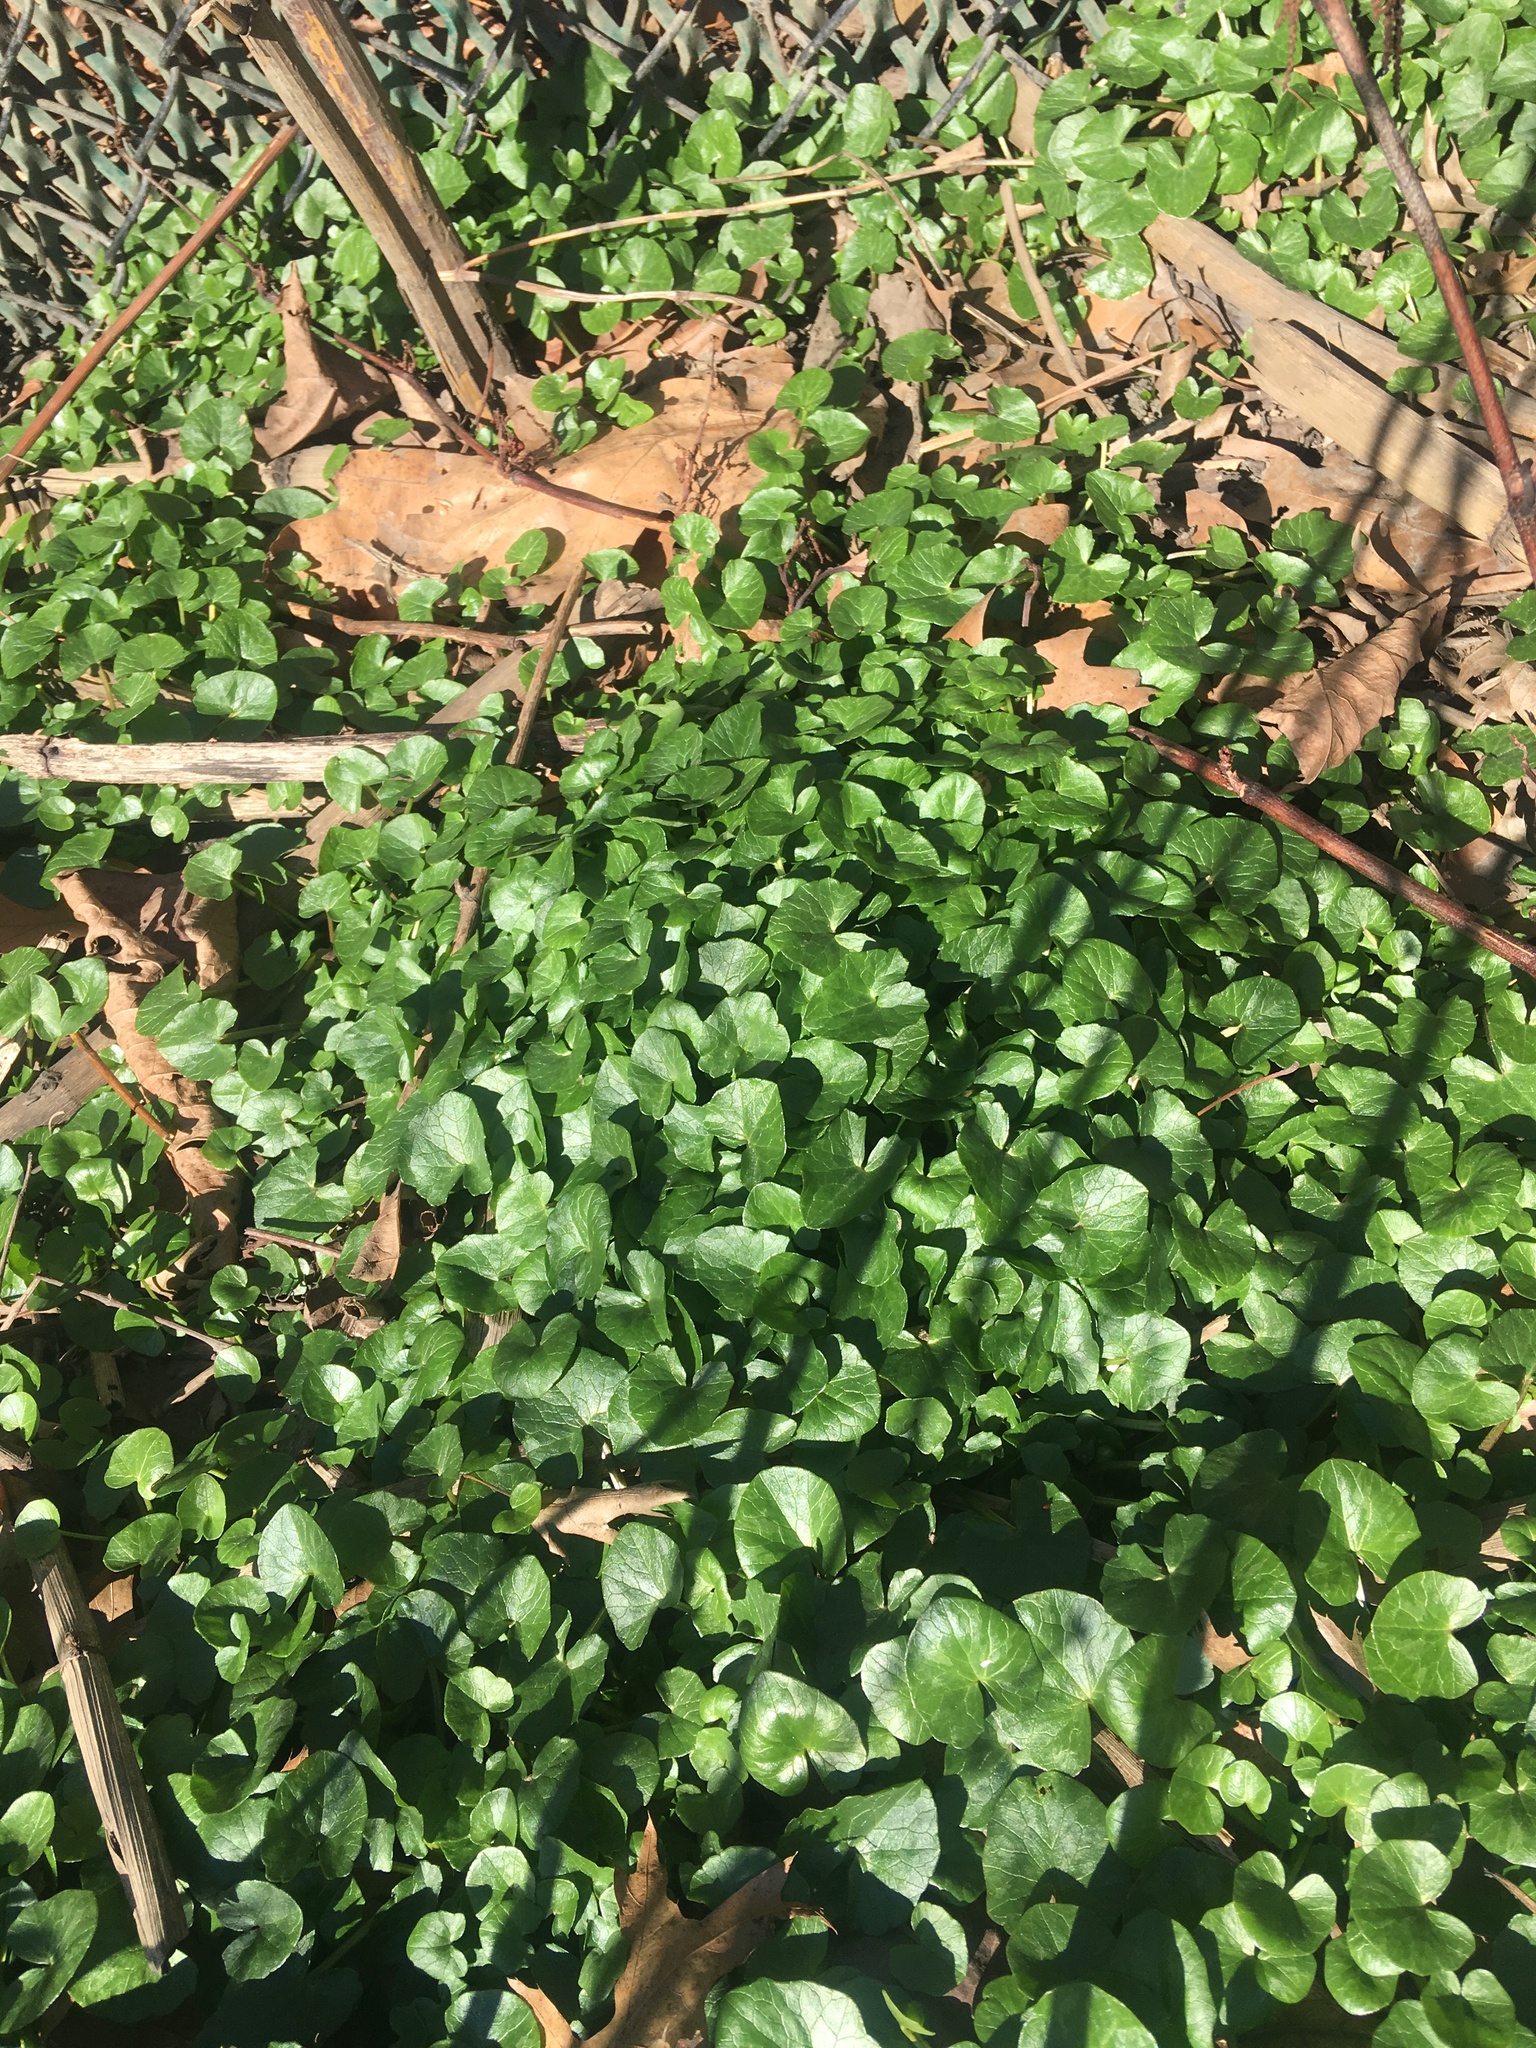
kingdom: Plantae
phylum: Tracheophyta
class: Magnoliopsida
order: Ranunculales
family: Ranunculaceae
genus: Ficaria
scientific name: Ficaria verna
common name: Lesser celandine
